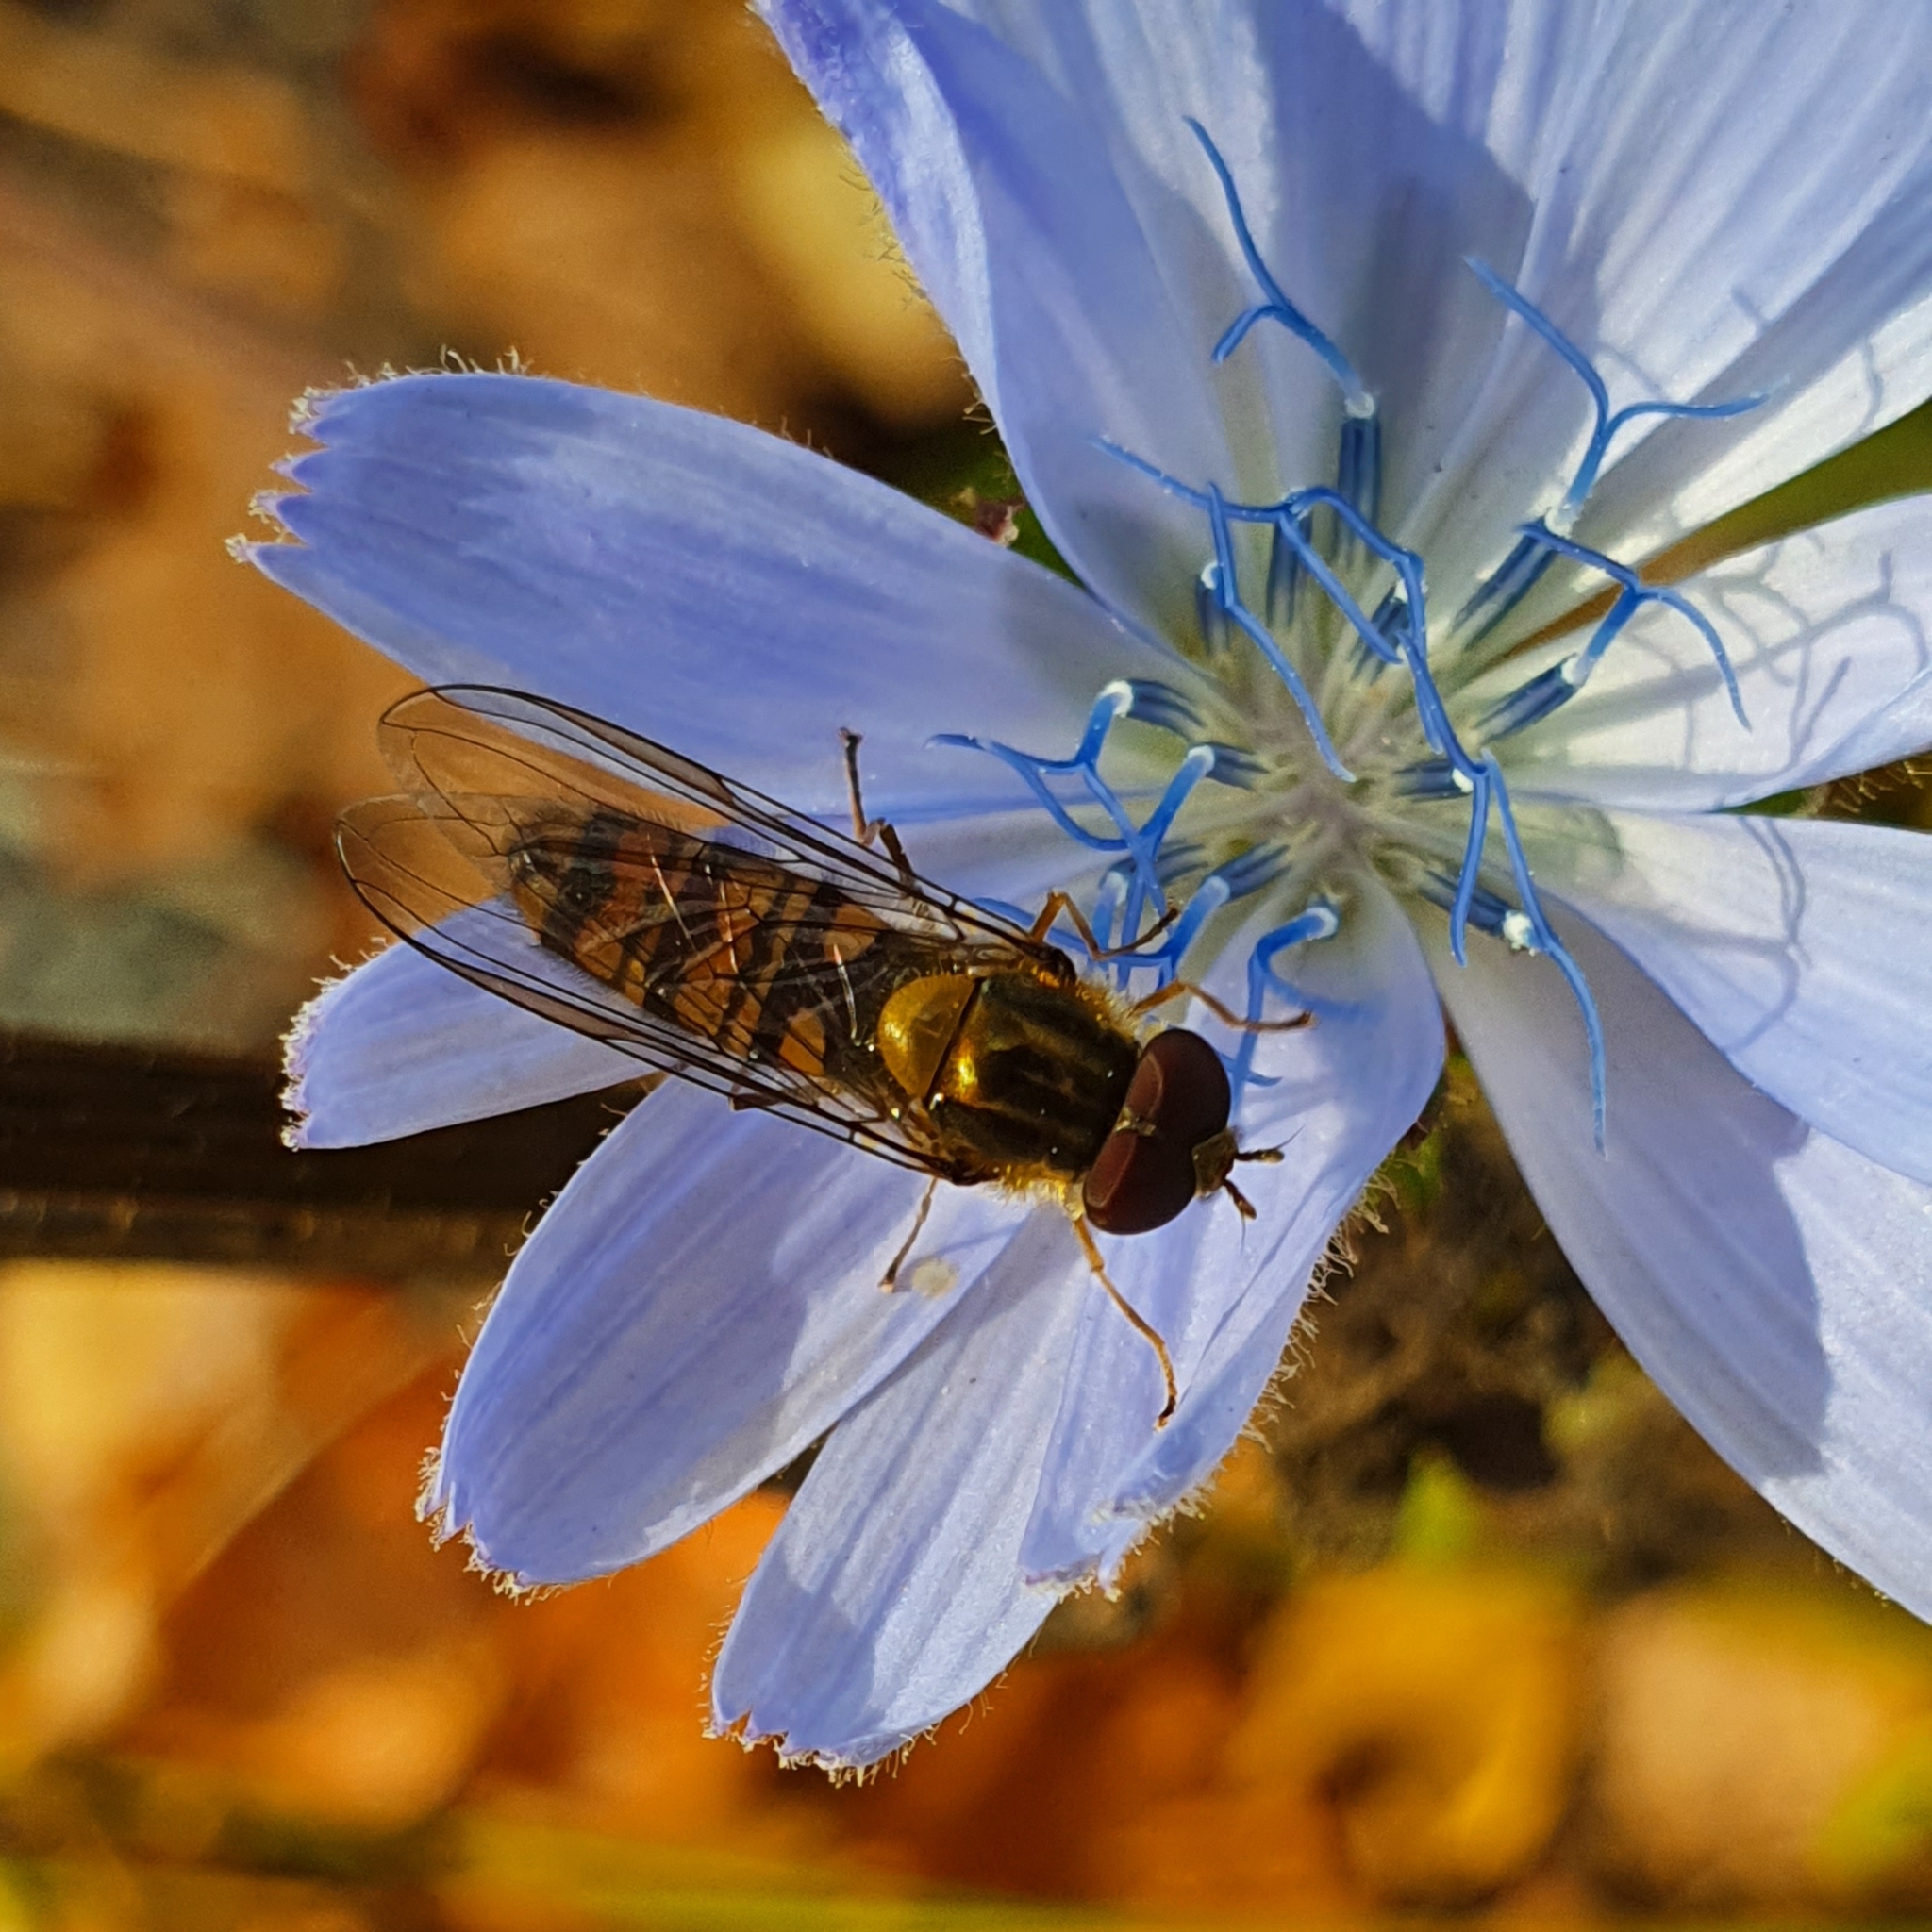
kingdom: Animalia
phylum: Arthropoda
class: Insecta
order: Diptera
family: Syrphidae
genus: Episyrphus
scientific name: Episyrphus balteatus
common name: Marmalade hoverfly
